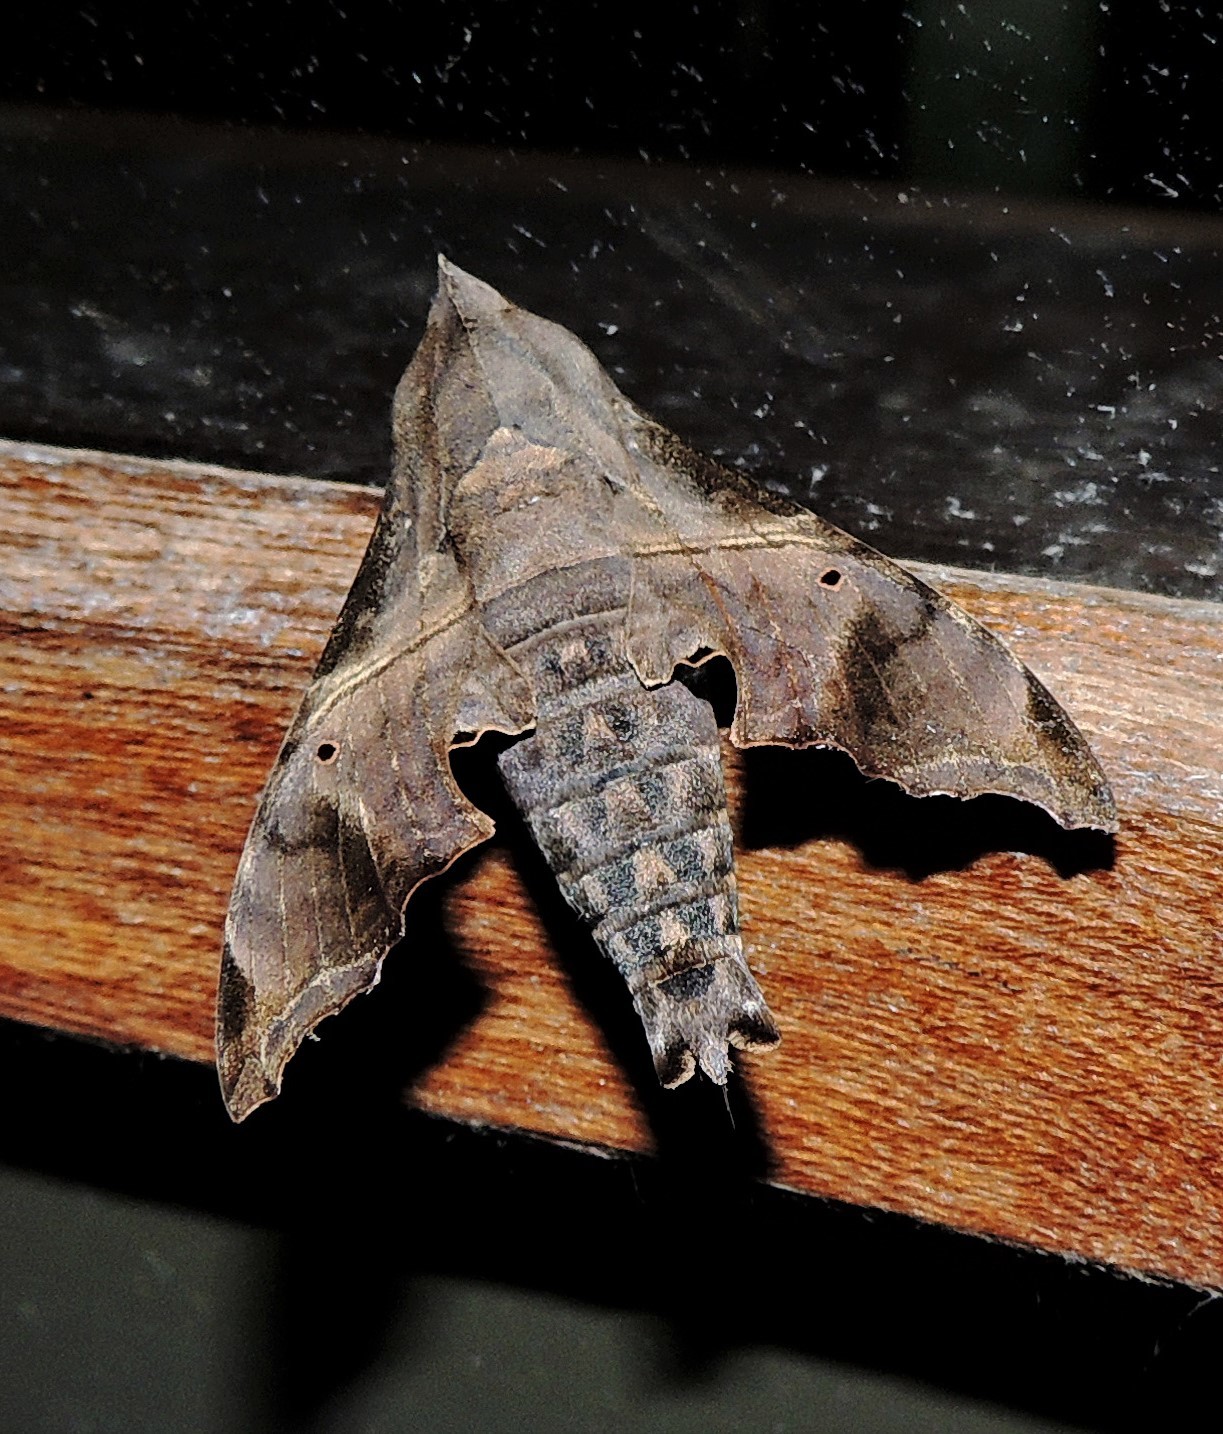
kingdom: Animalia
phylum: Arthropoda
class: Insecta
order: Lepidoptera
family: Sphingidae
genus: Enyo
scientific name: Enyo lugubris
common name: Mournful sphinx
